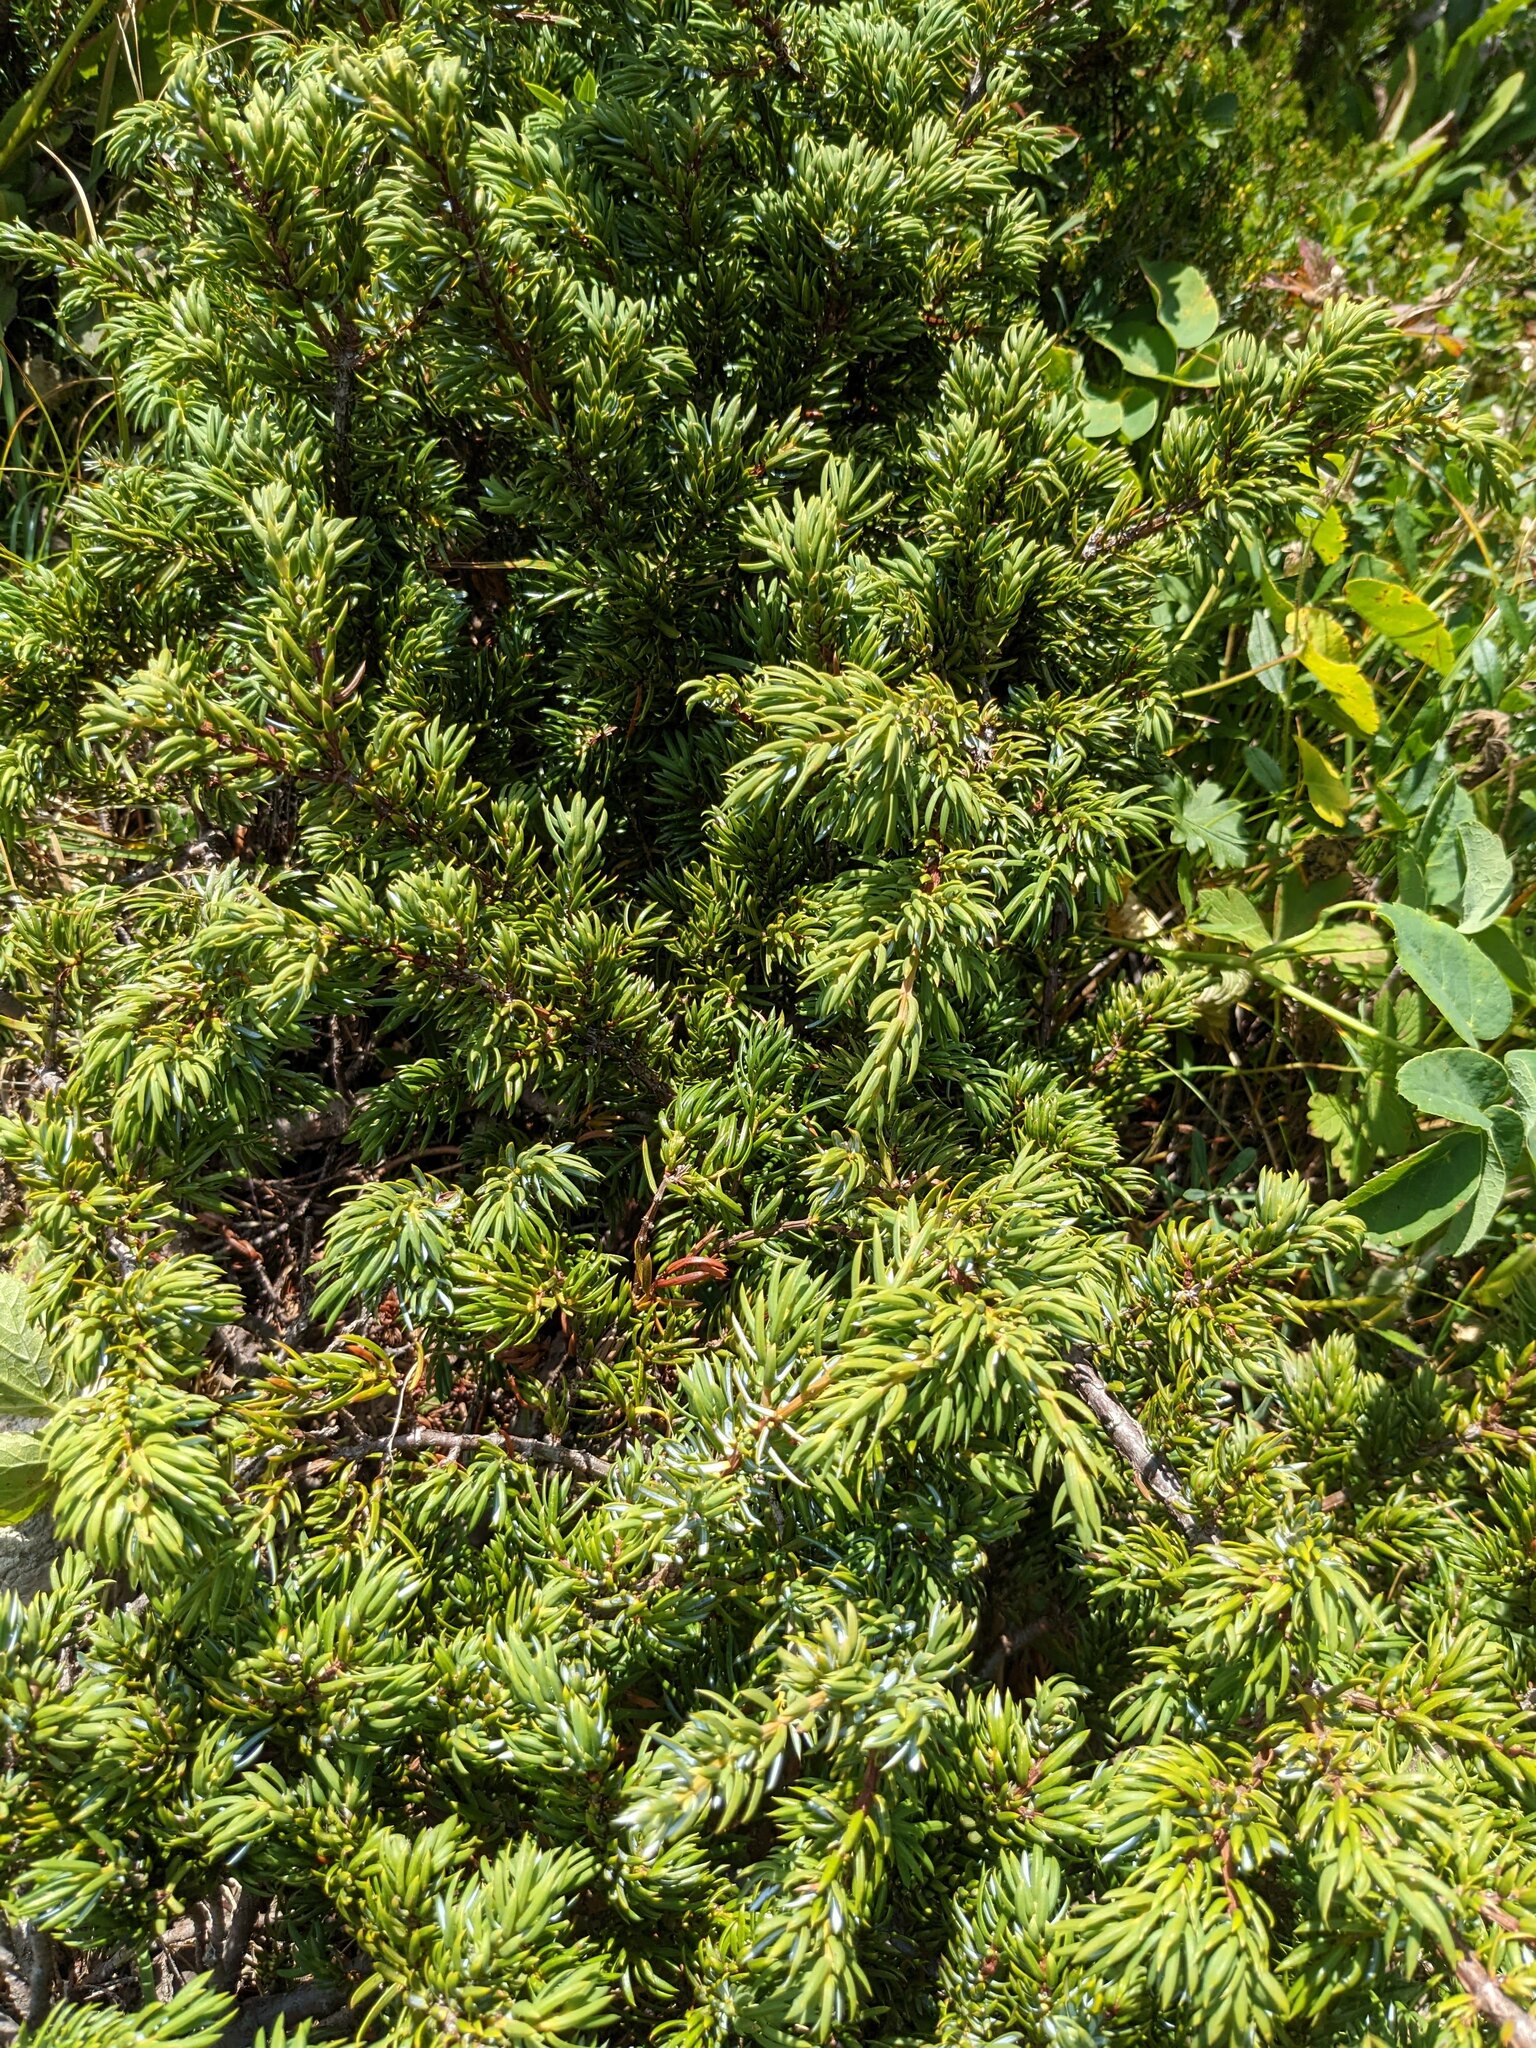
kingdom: Plantae
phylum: Tracheophyta
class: Pinopsida
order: Pinales
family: Cupressaceae
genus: Juniperus
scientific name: Juniperus communis
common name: Common juniper
